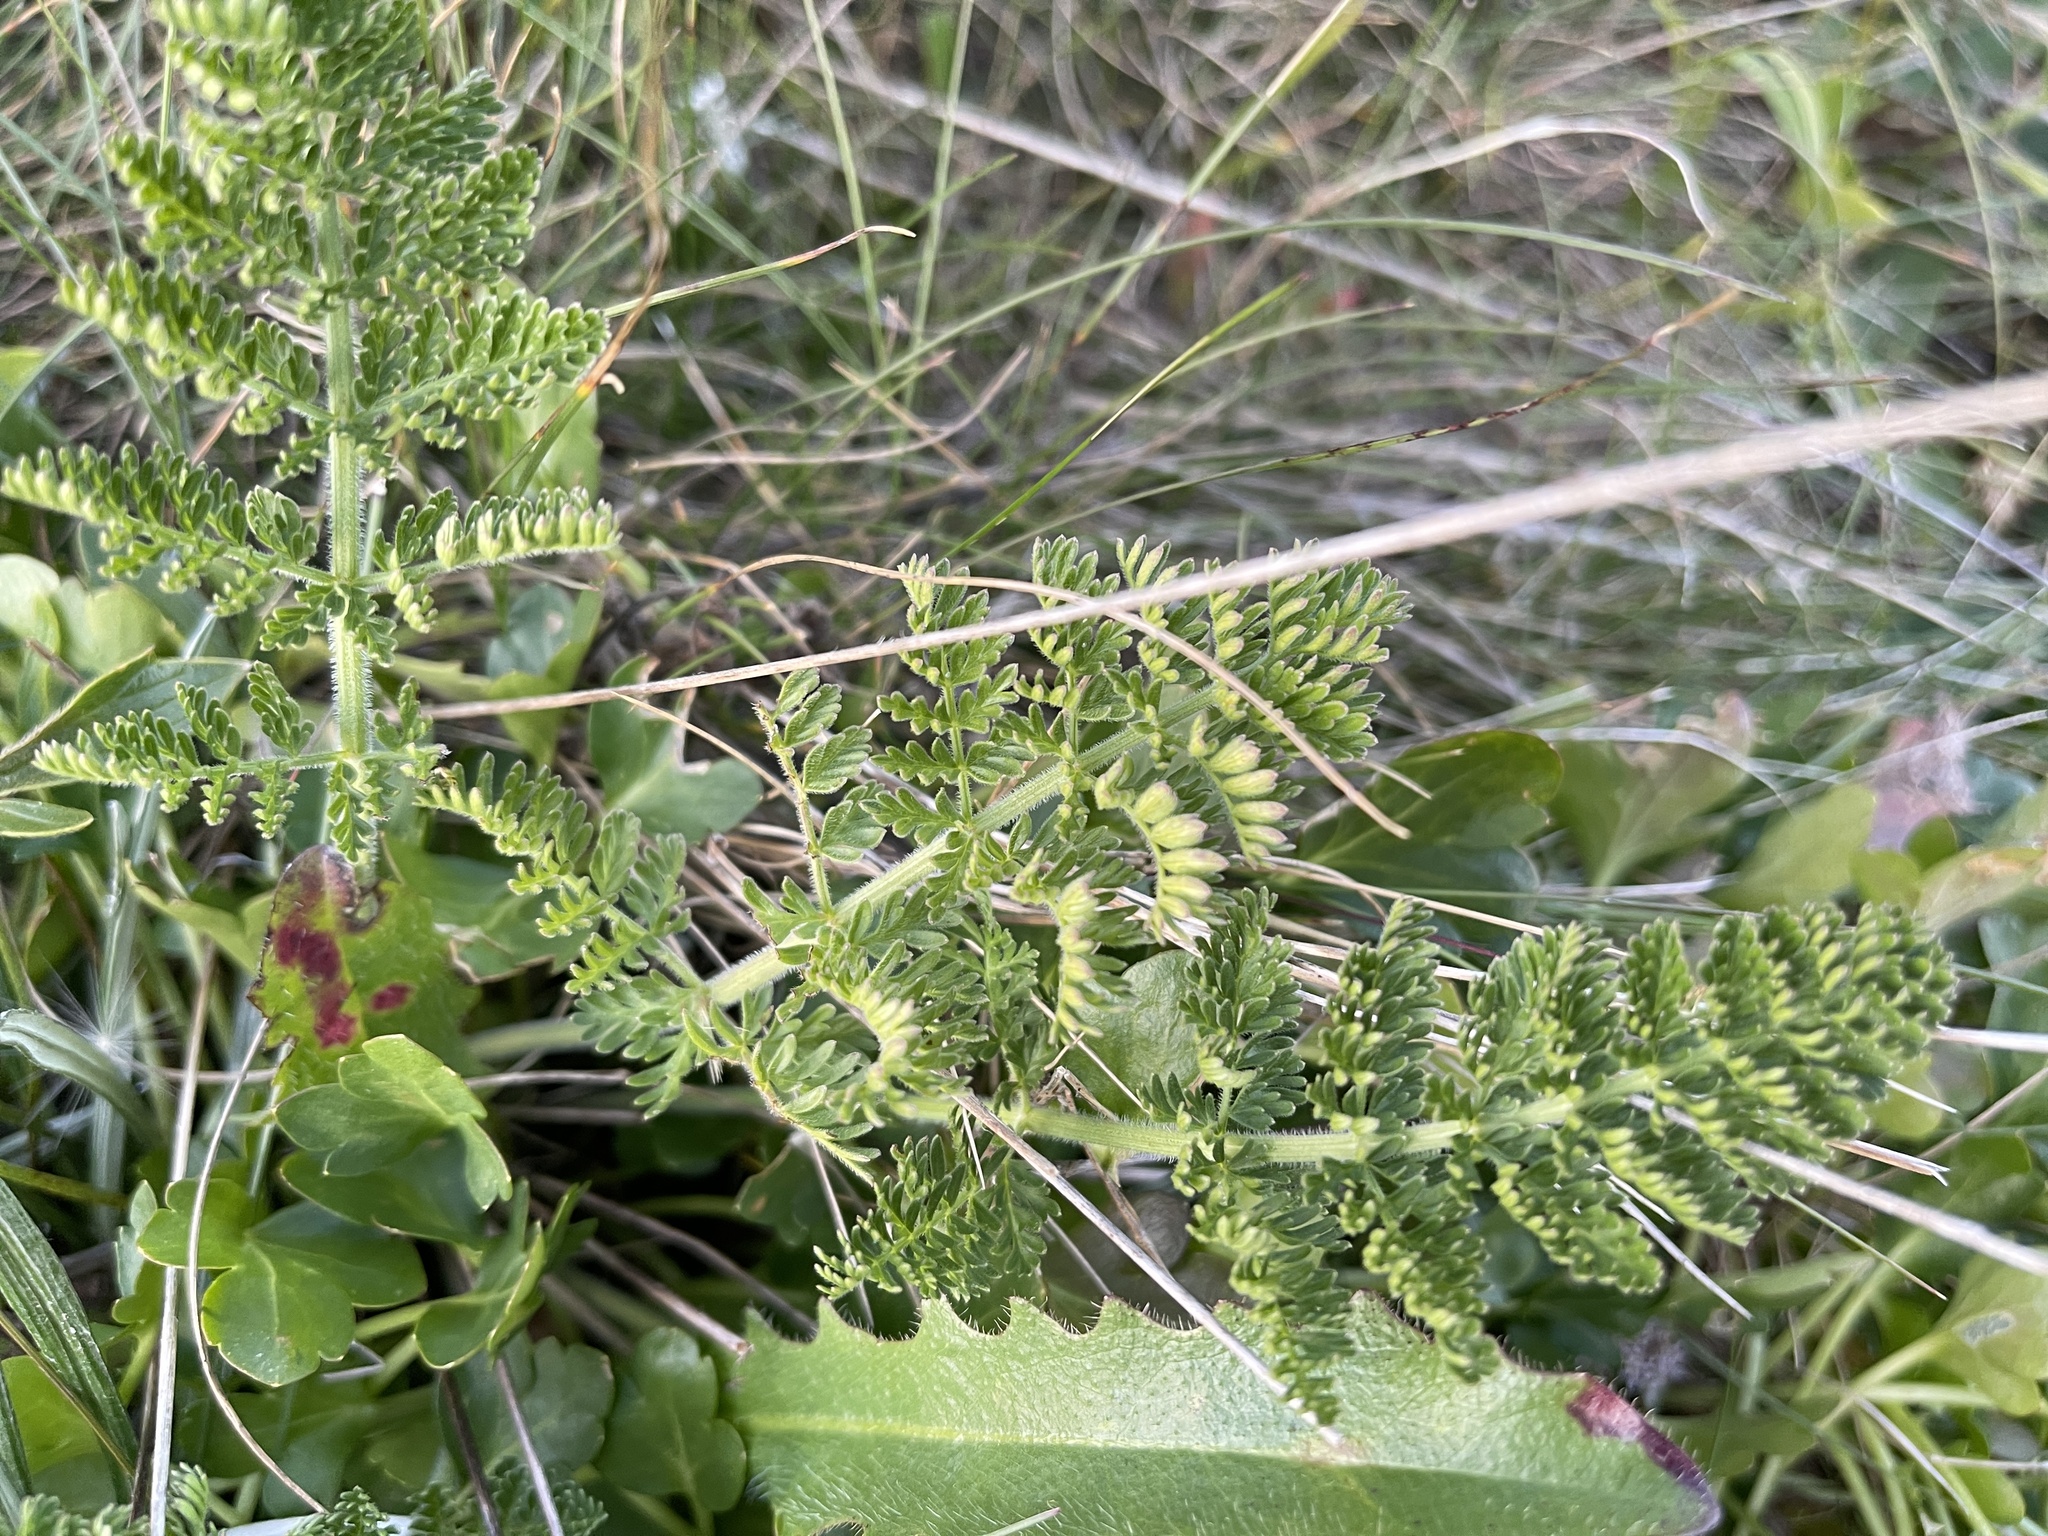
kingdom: Plantae
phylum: Tracheophyta
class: Magnoliopsida
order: Apiales
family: Apiaceae
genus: Chaerophyllum
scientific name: Chaerophyllum eriopodum
